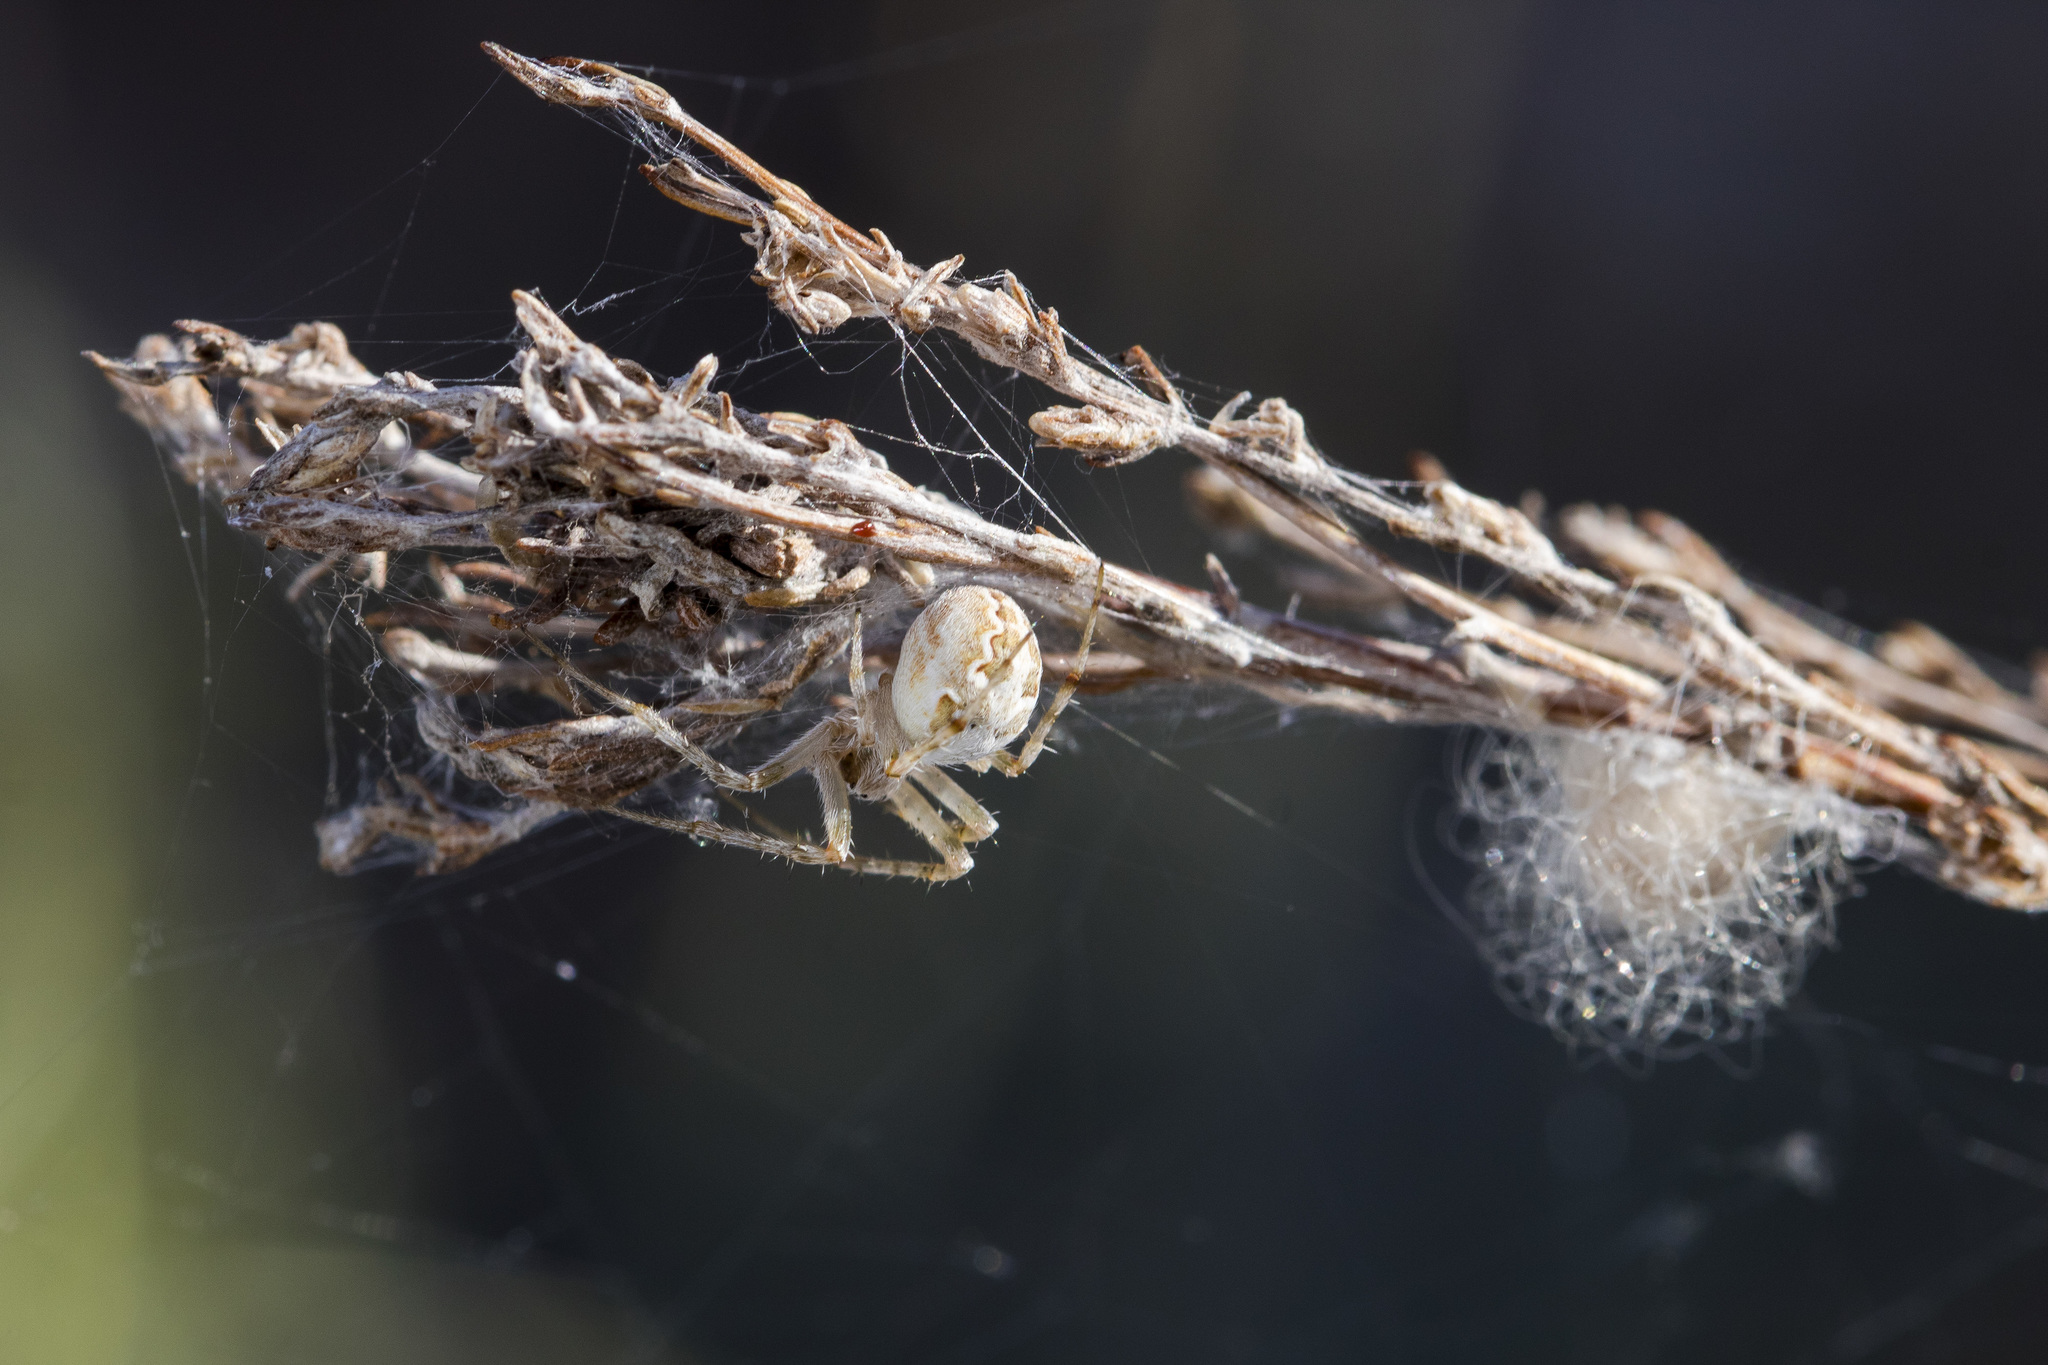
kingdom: Animalia
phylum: Arthropoda
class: Arachnida
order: Araneae
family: Araneidae
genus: Araneus
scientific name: Araneus pallasi
